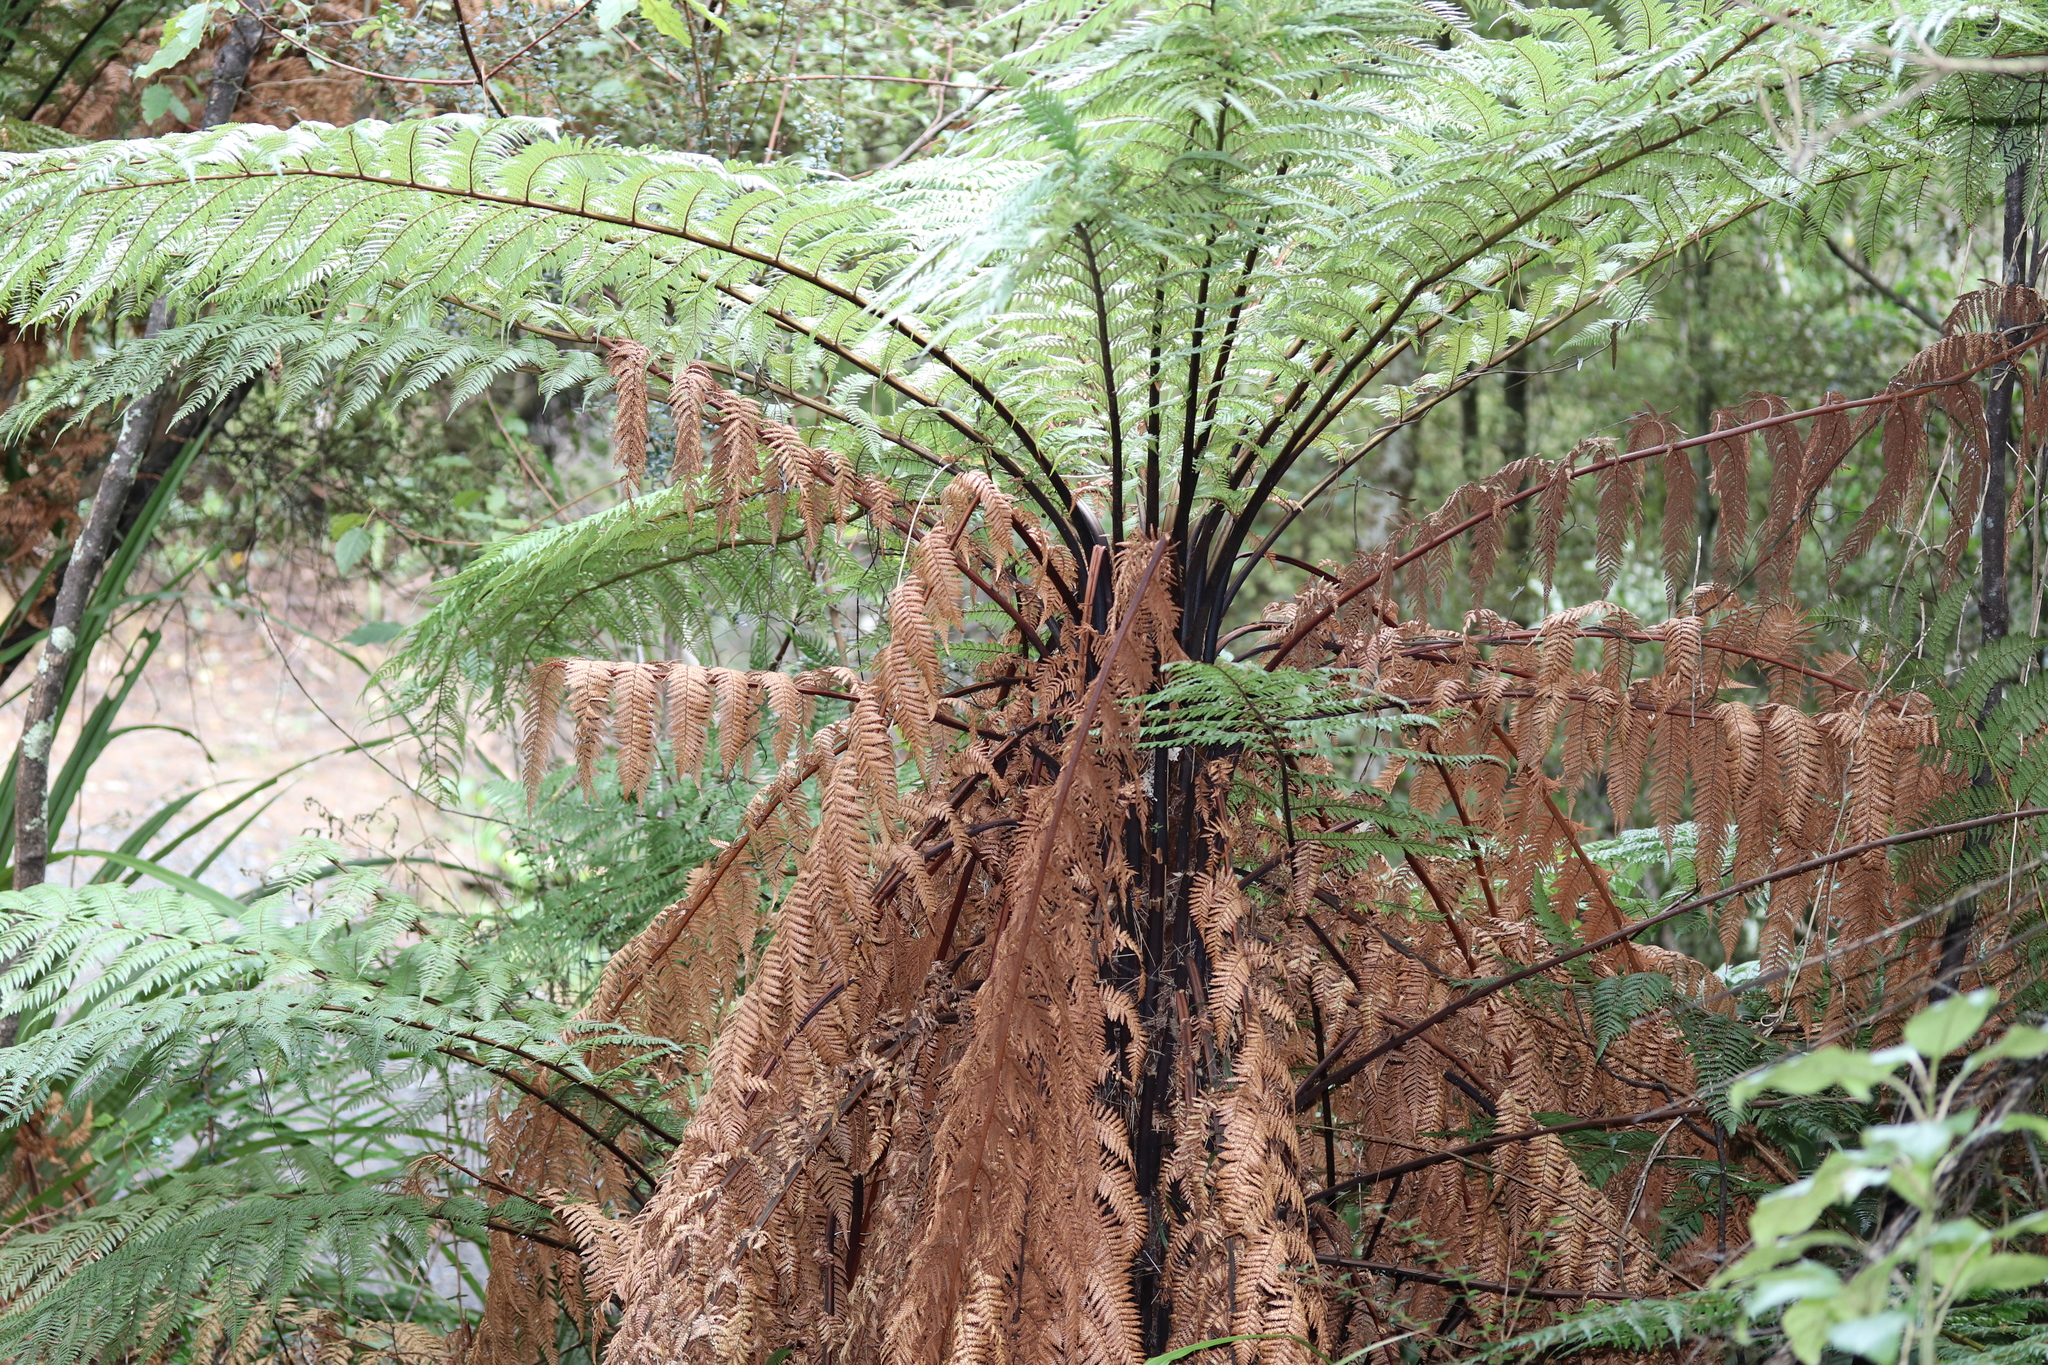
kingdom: Plantae
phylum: Tracheophyta
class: Polypodiopsida
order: Cyatheales
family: Dicksoniaceae
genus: Dicksonia
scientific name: Dicksonia squarrosa
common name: Hard treefern
